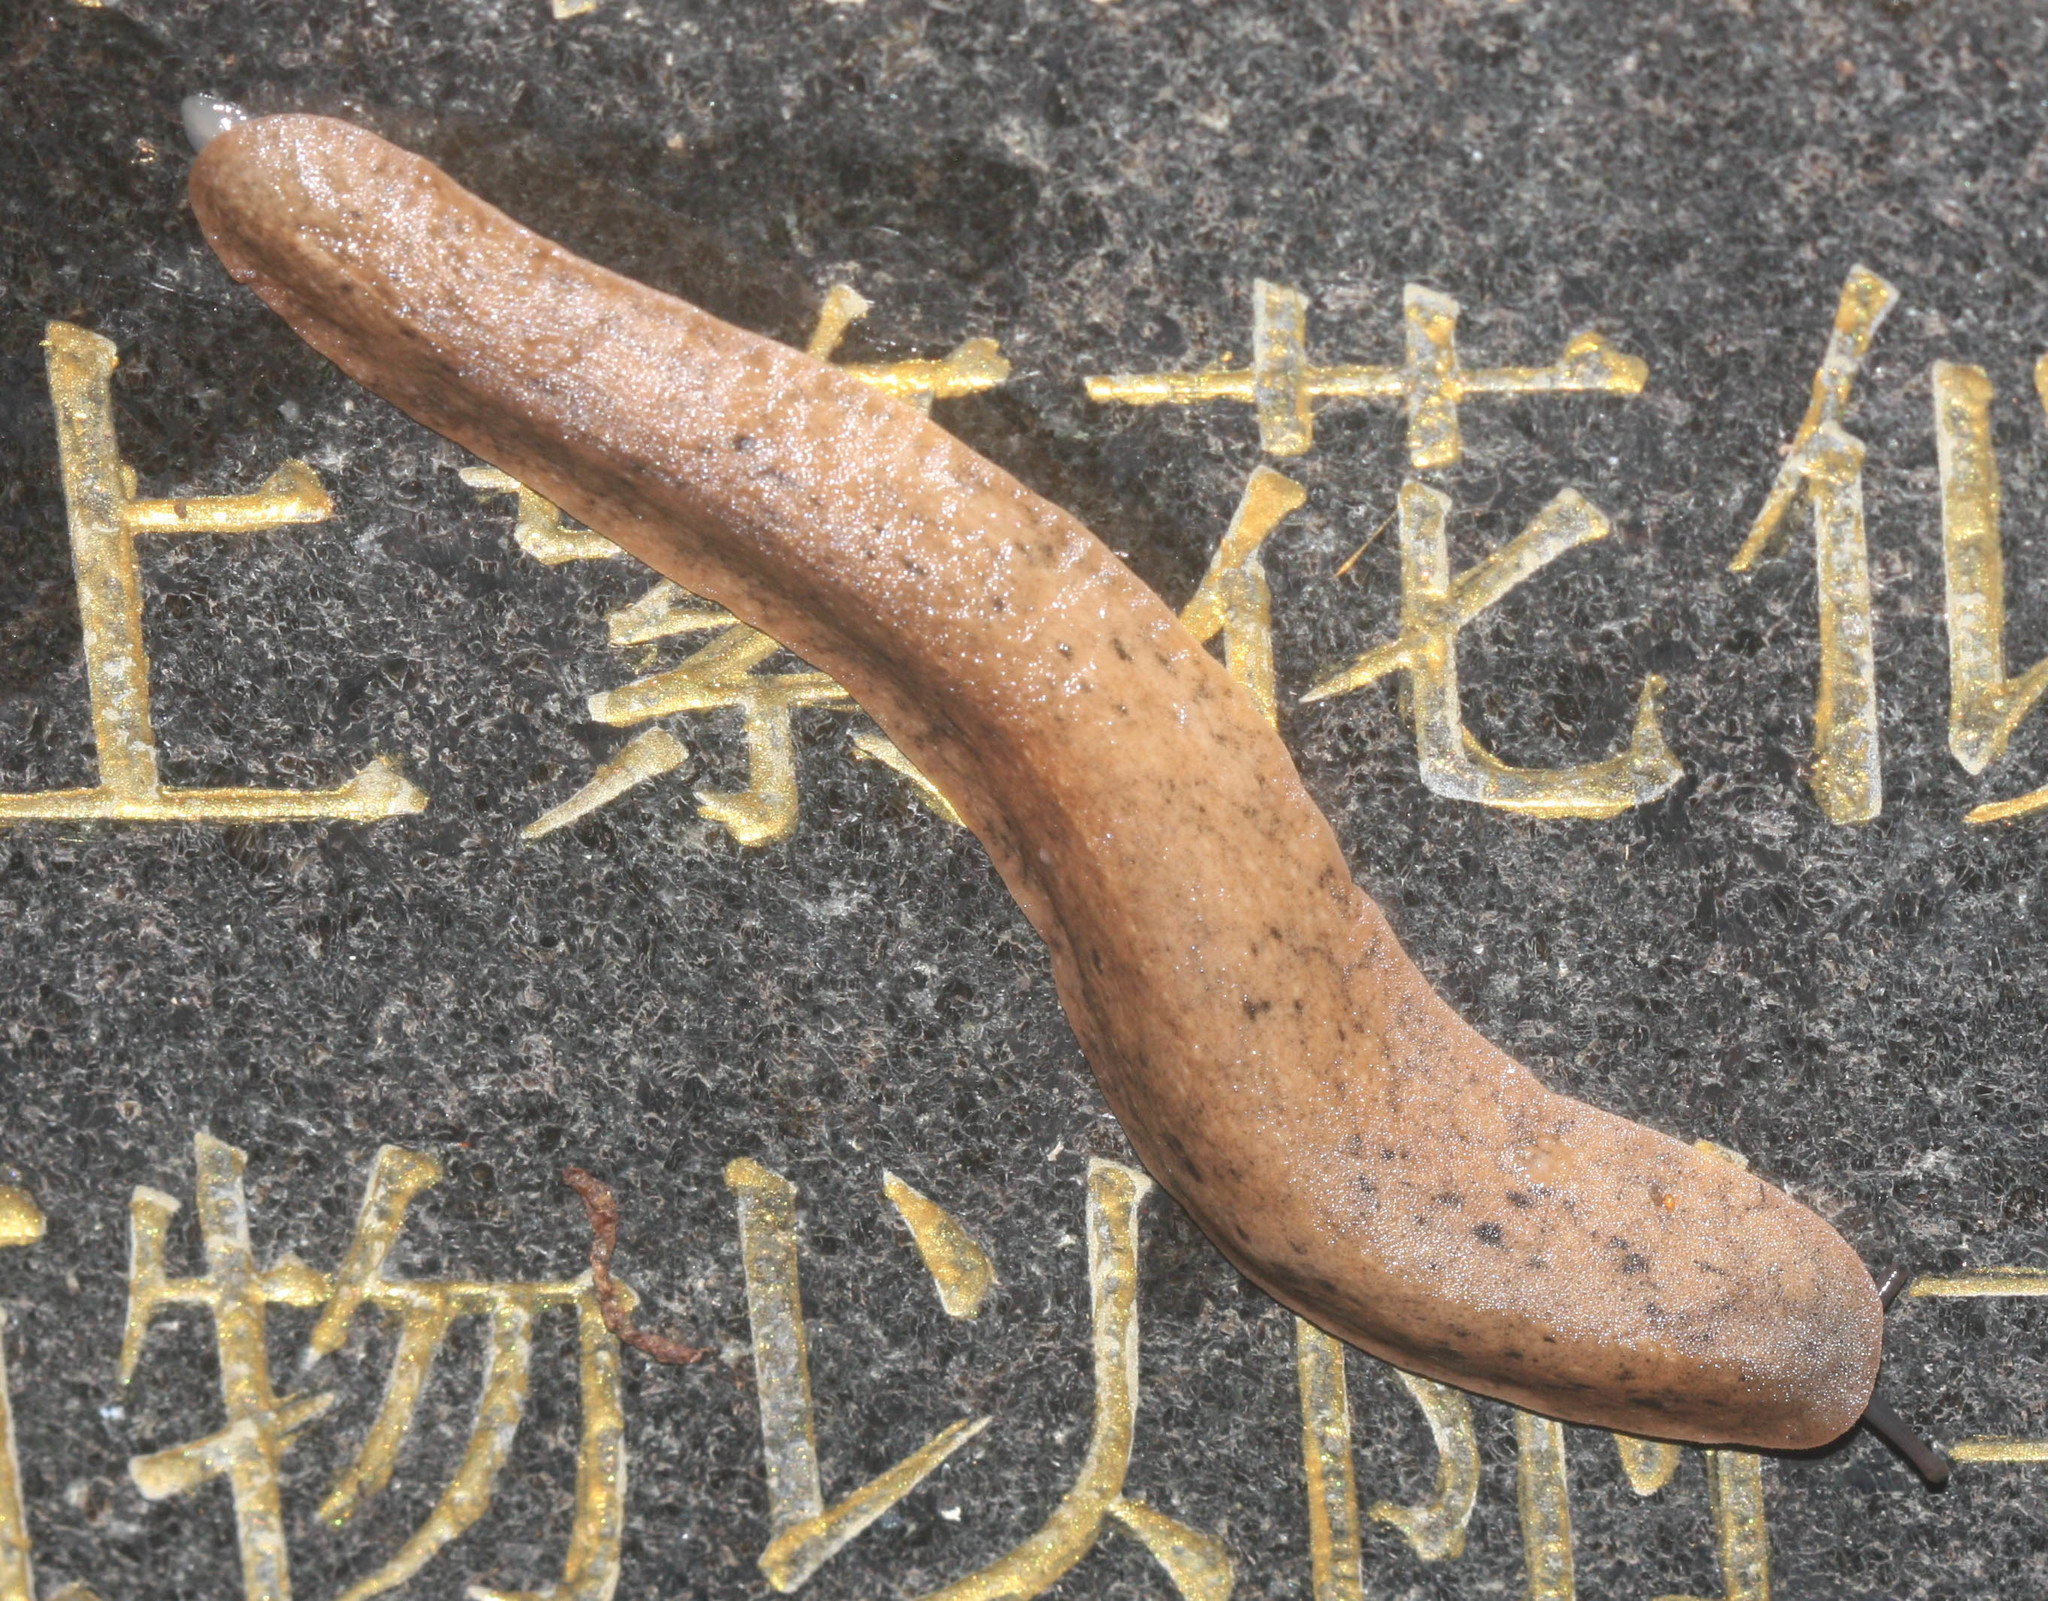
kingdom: Animalia
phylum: Mollusca
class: Gastropoda
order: Systellommatophora
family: Veronicellidae
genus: Valiguna
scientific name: Valiguna siamensis
